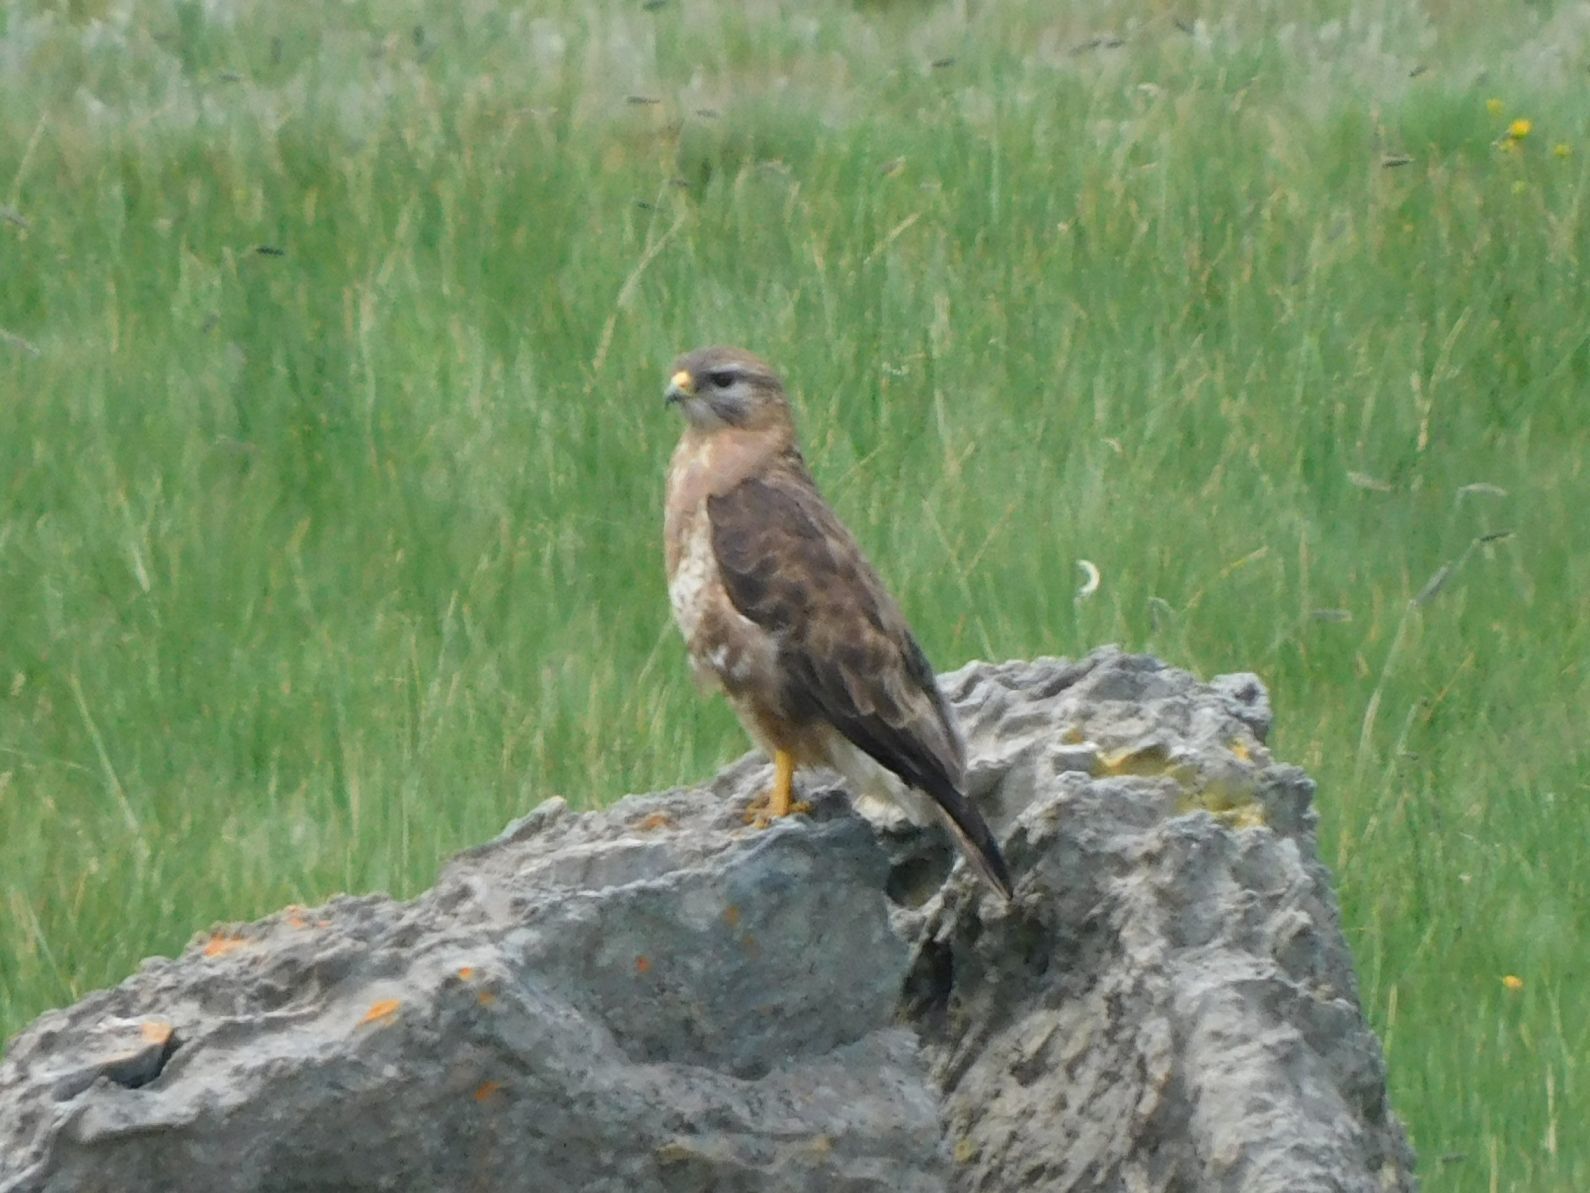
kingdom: Animalia
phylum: Chordata
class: Aves
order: Accipitriformes
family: Accipitridae
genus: Buteo
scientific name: Buteo buteo
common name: Common buzzard
